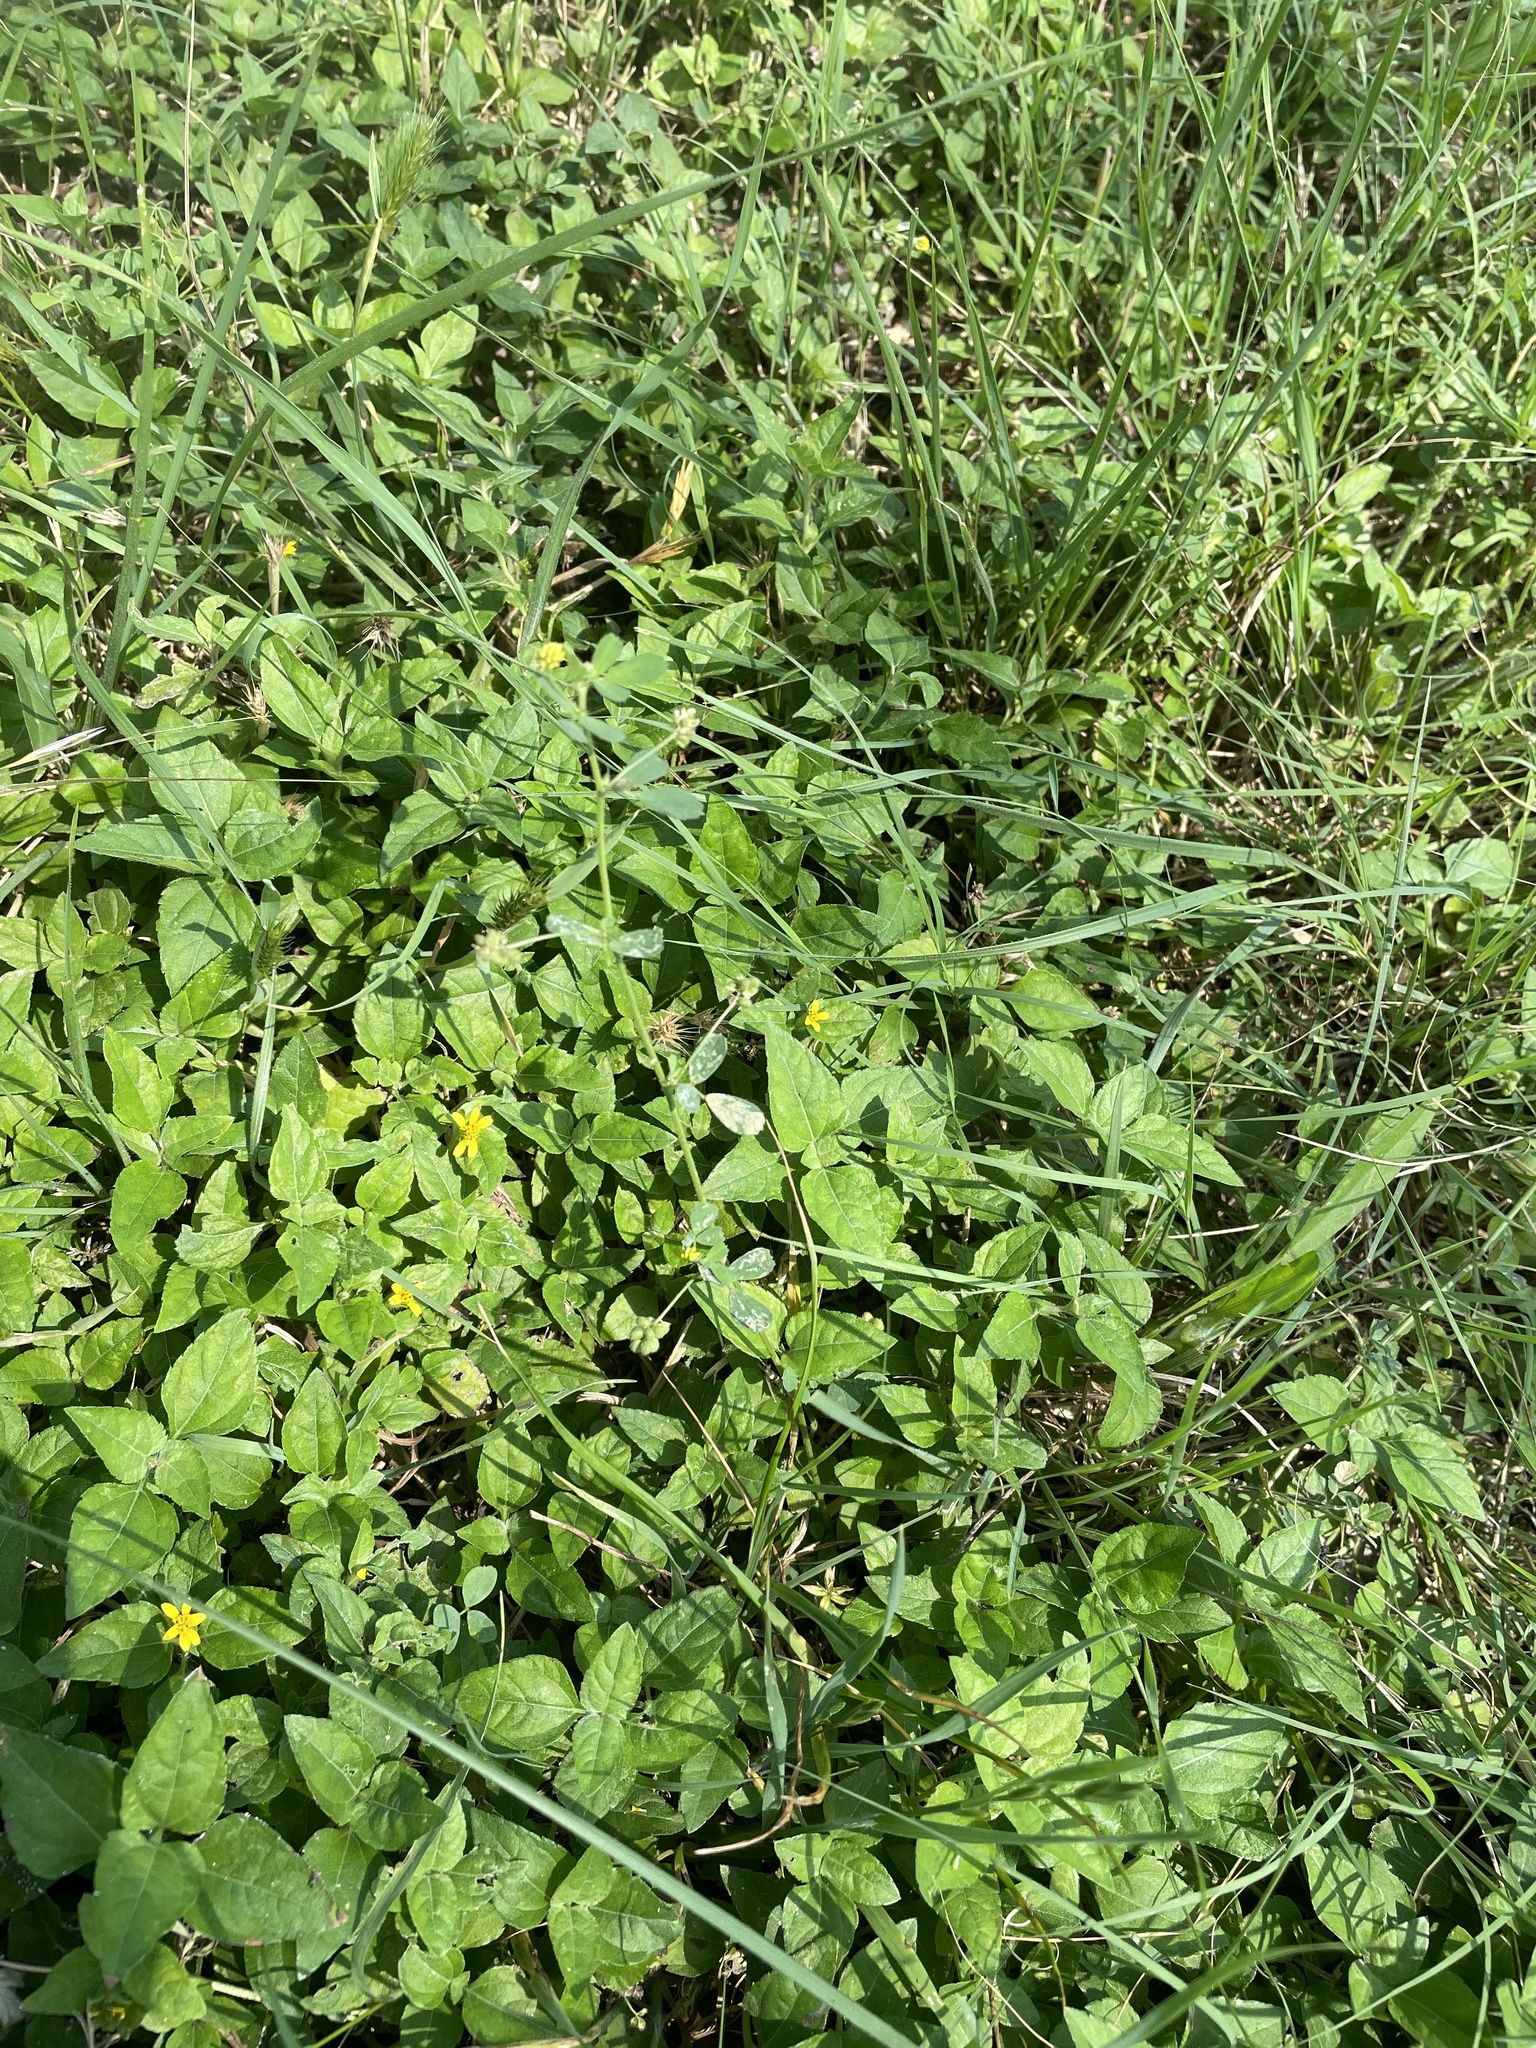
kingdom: Plantae
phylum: Tracheophyta
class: Magnoliopsida
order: Fabales
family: Fabaceae
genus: Medicago
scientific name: Medicago lupulina
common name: Black medick
